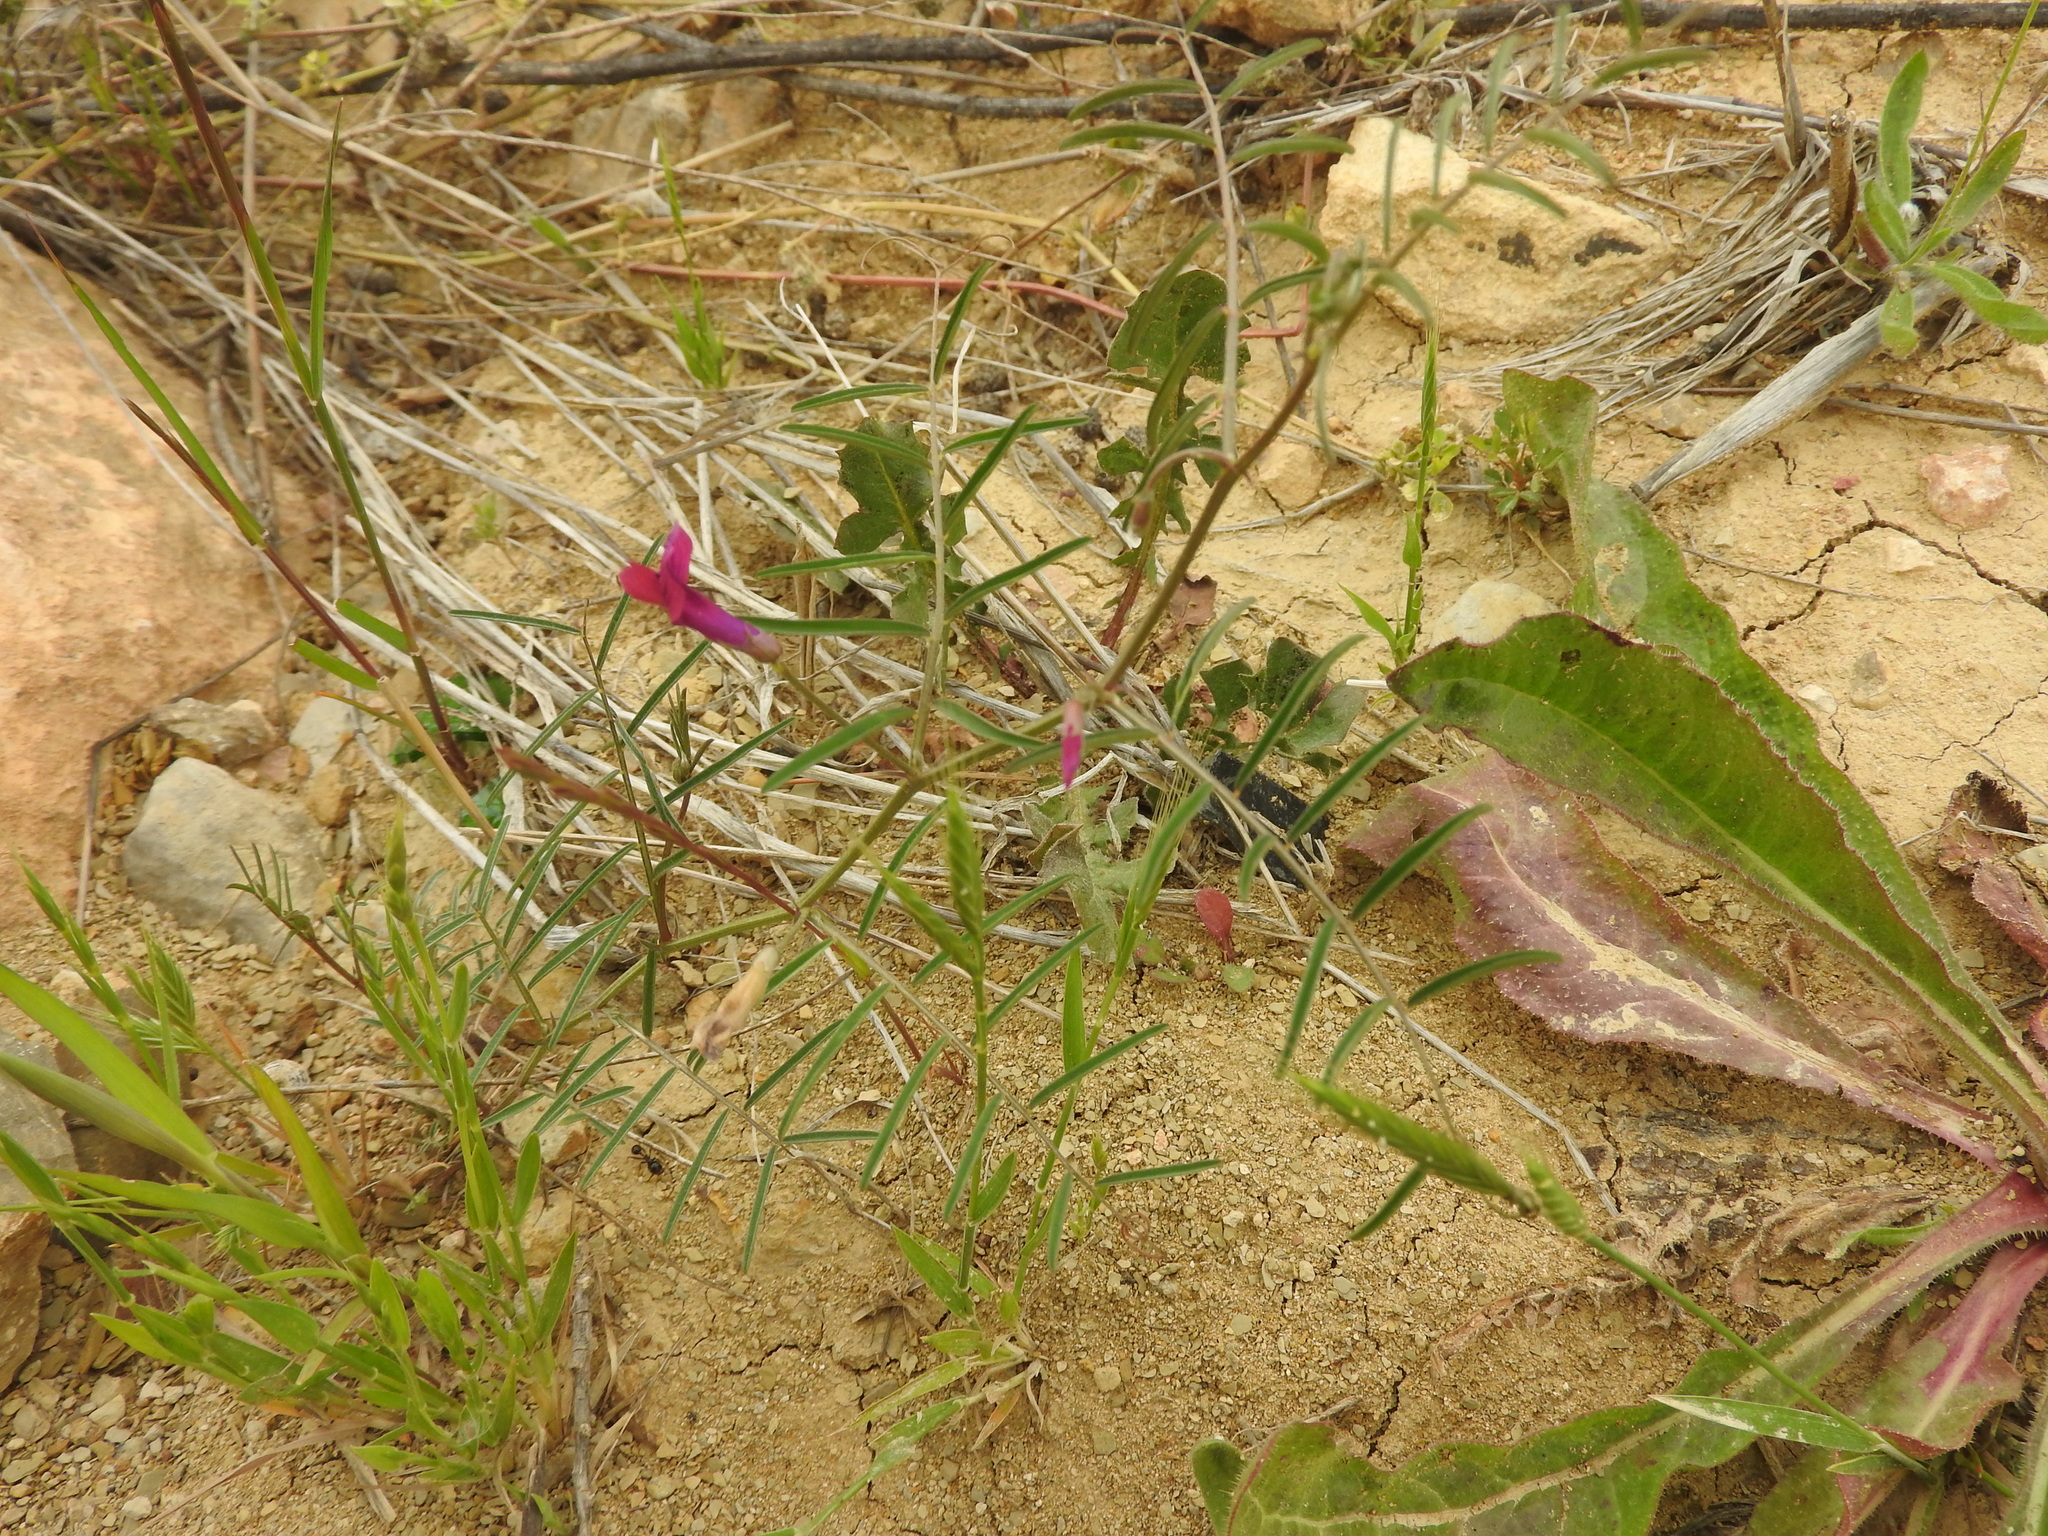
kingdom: Plantae
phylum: Tracheophyta
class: Magnoliopsida
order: Fabales
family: Fabaceae
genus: Vicia
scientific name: Vicia monantha
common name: Barn vetch
